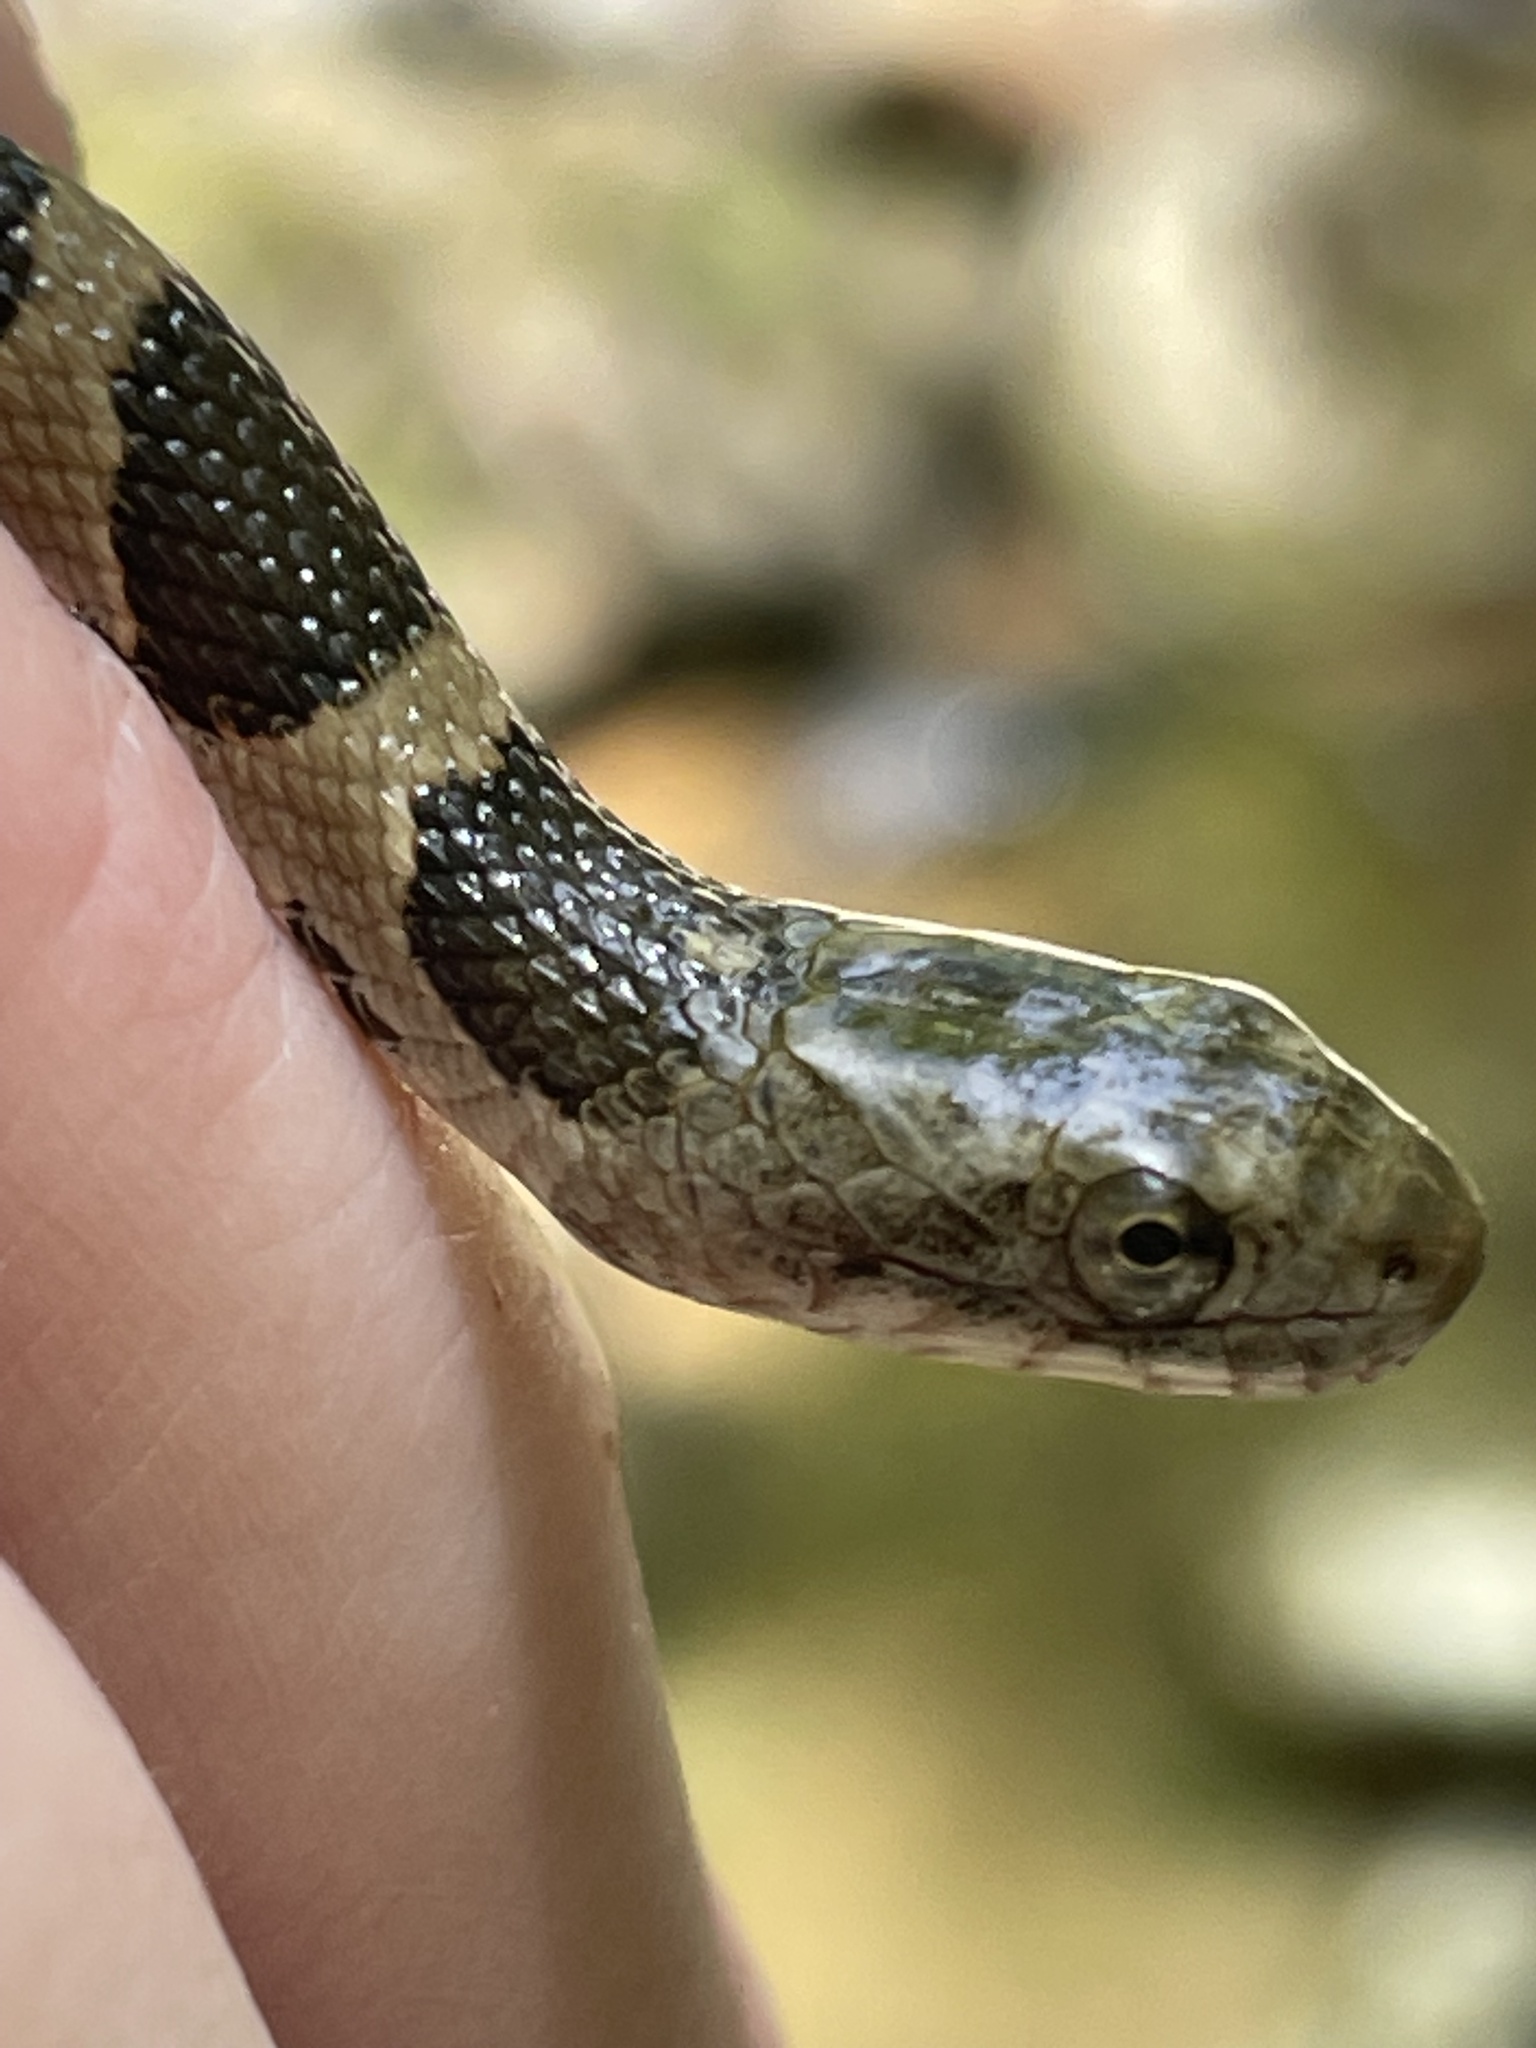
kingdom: Animalia
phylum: Chordata
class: Squamata
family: Colubridae
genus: Nerodia
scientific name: Nerodia sipedon
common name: Northern water snake
